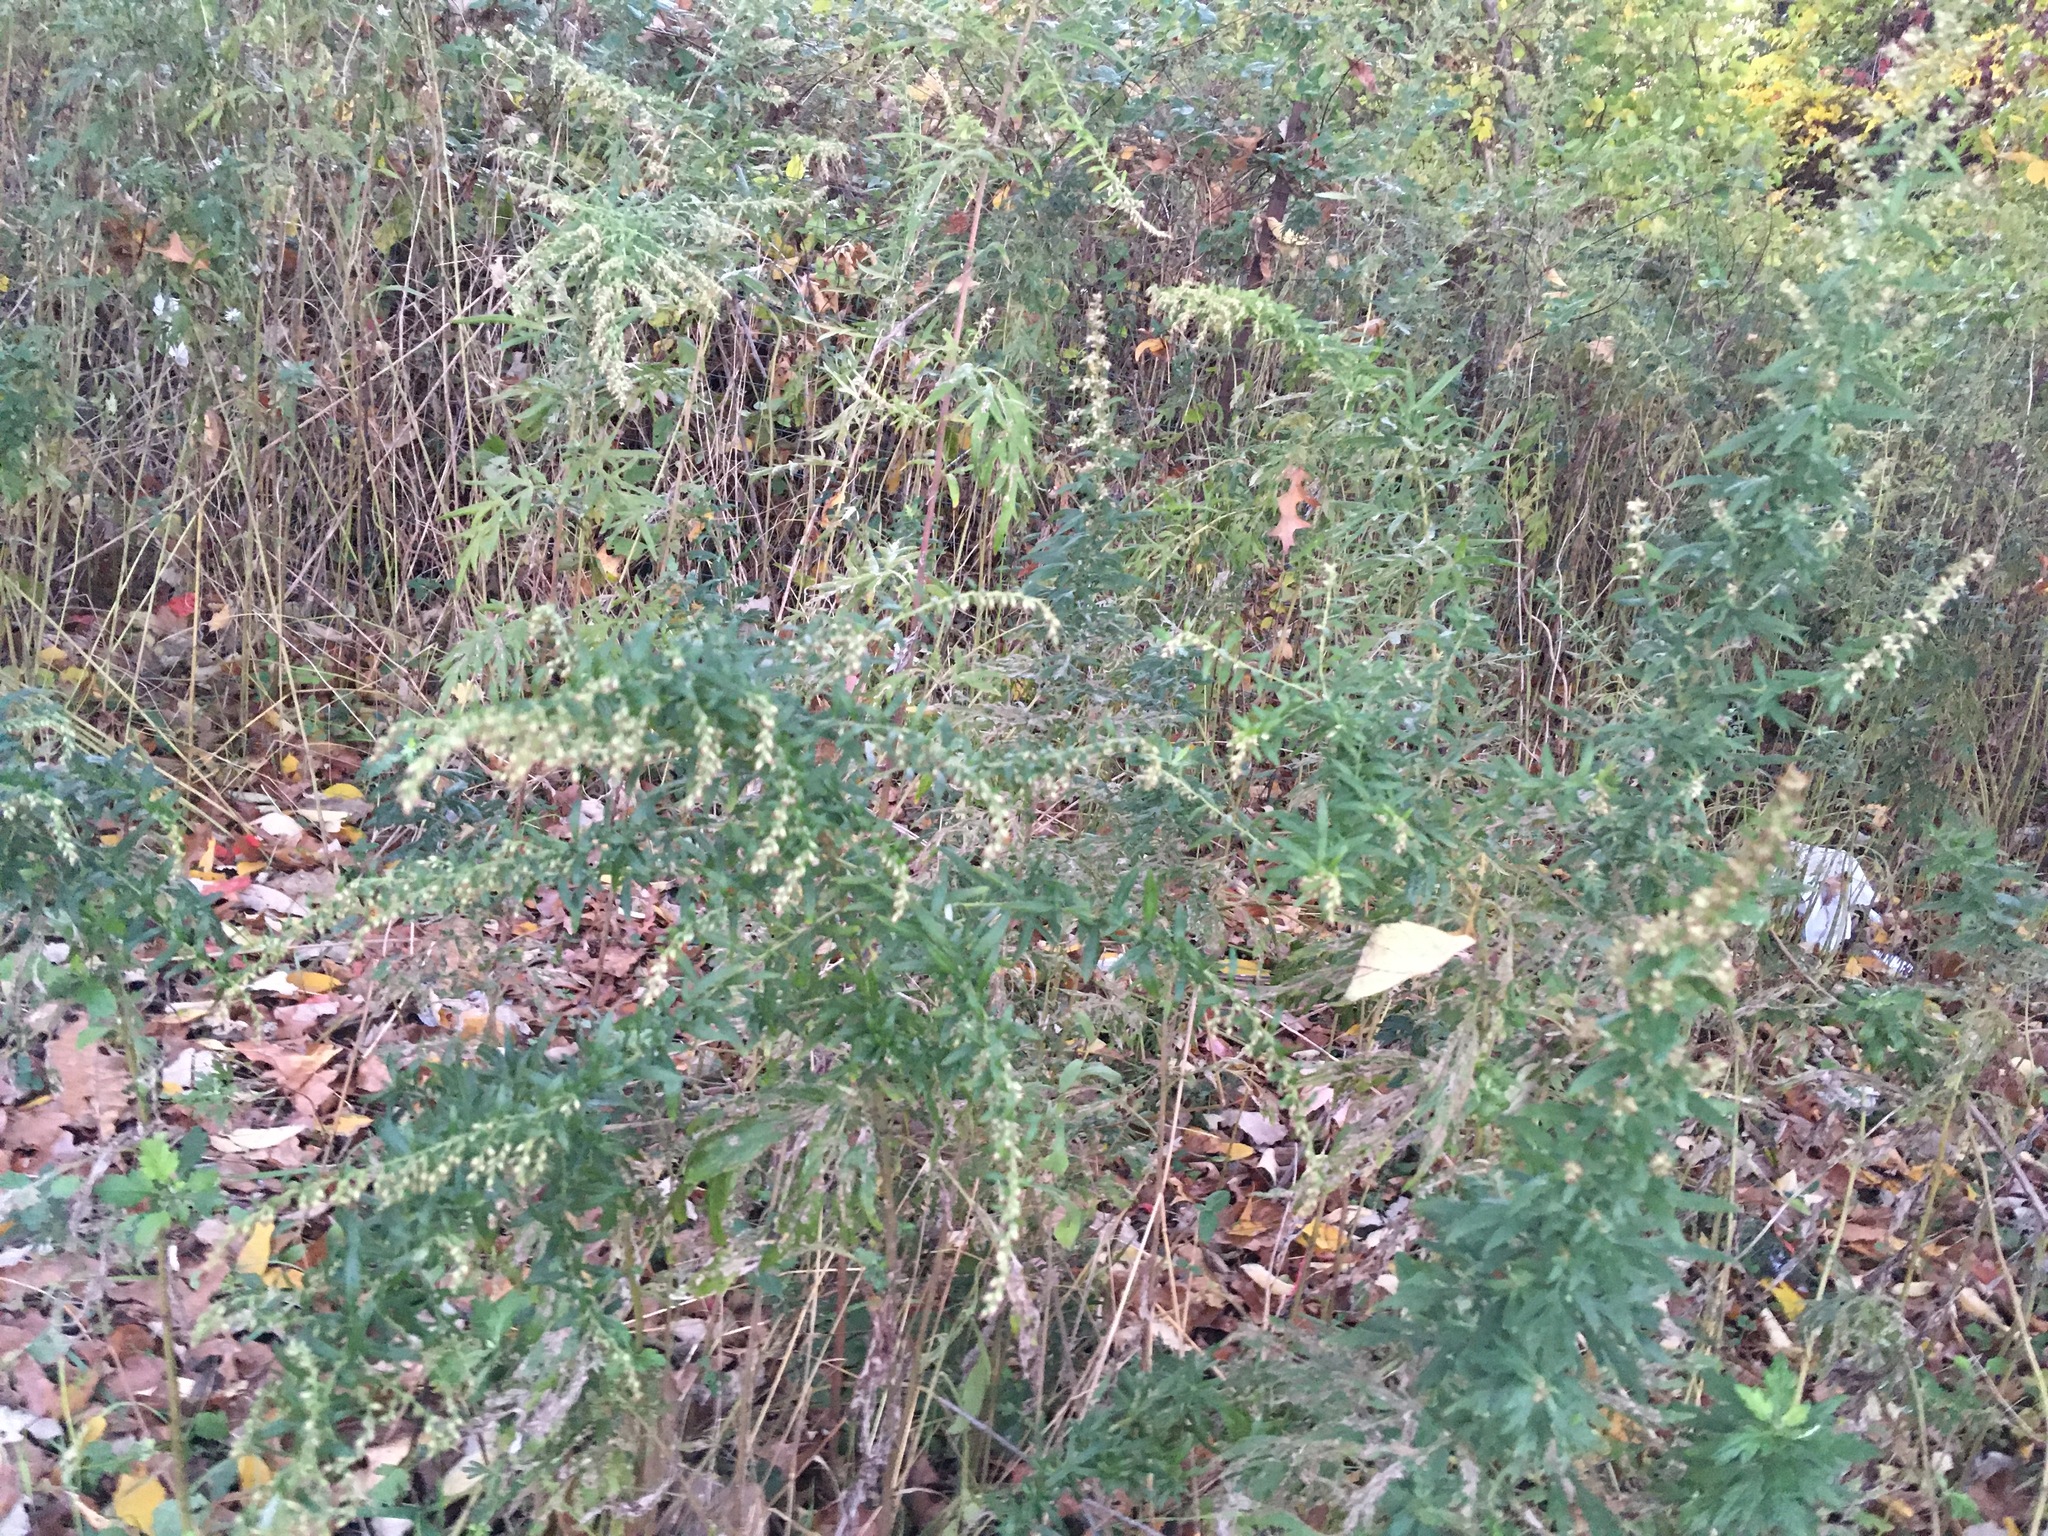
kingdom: Plantae
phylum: Tracheophyta
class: Magnoliopsida
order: Asterales
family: Asteraceae
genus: Artemisia
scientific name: Artemisia vulgaris
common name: Mugwort
